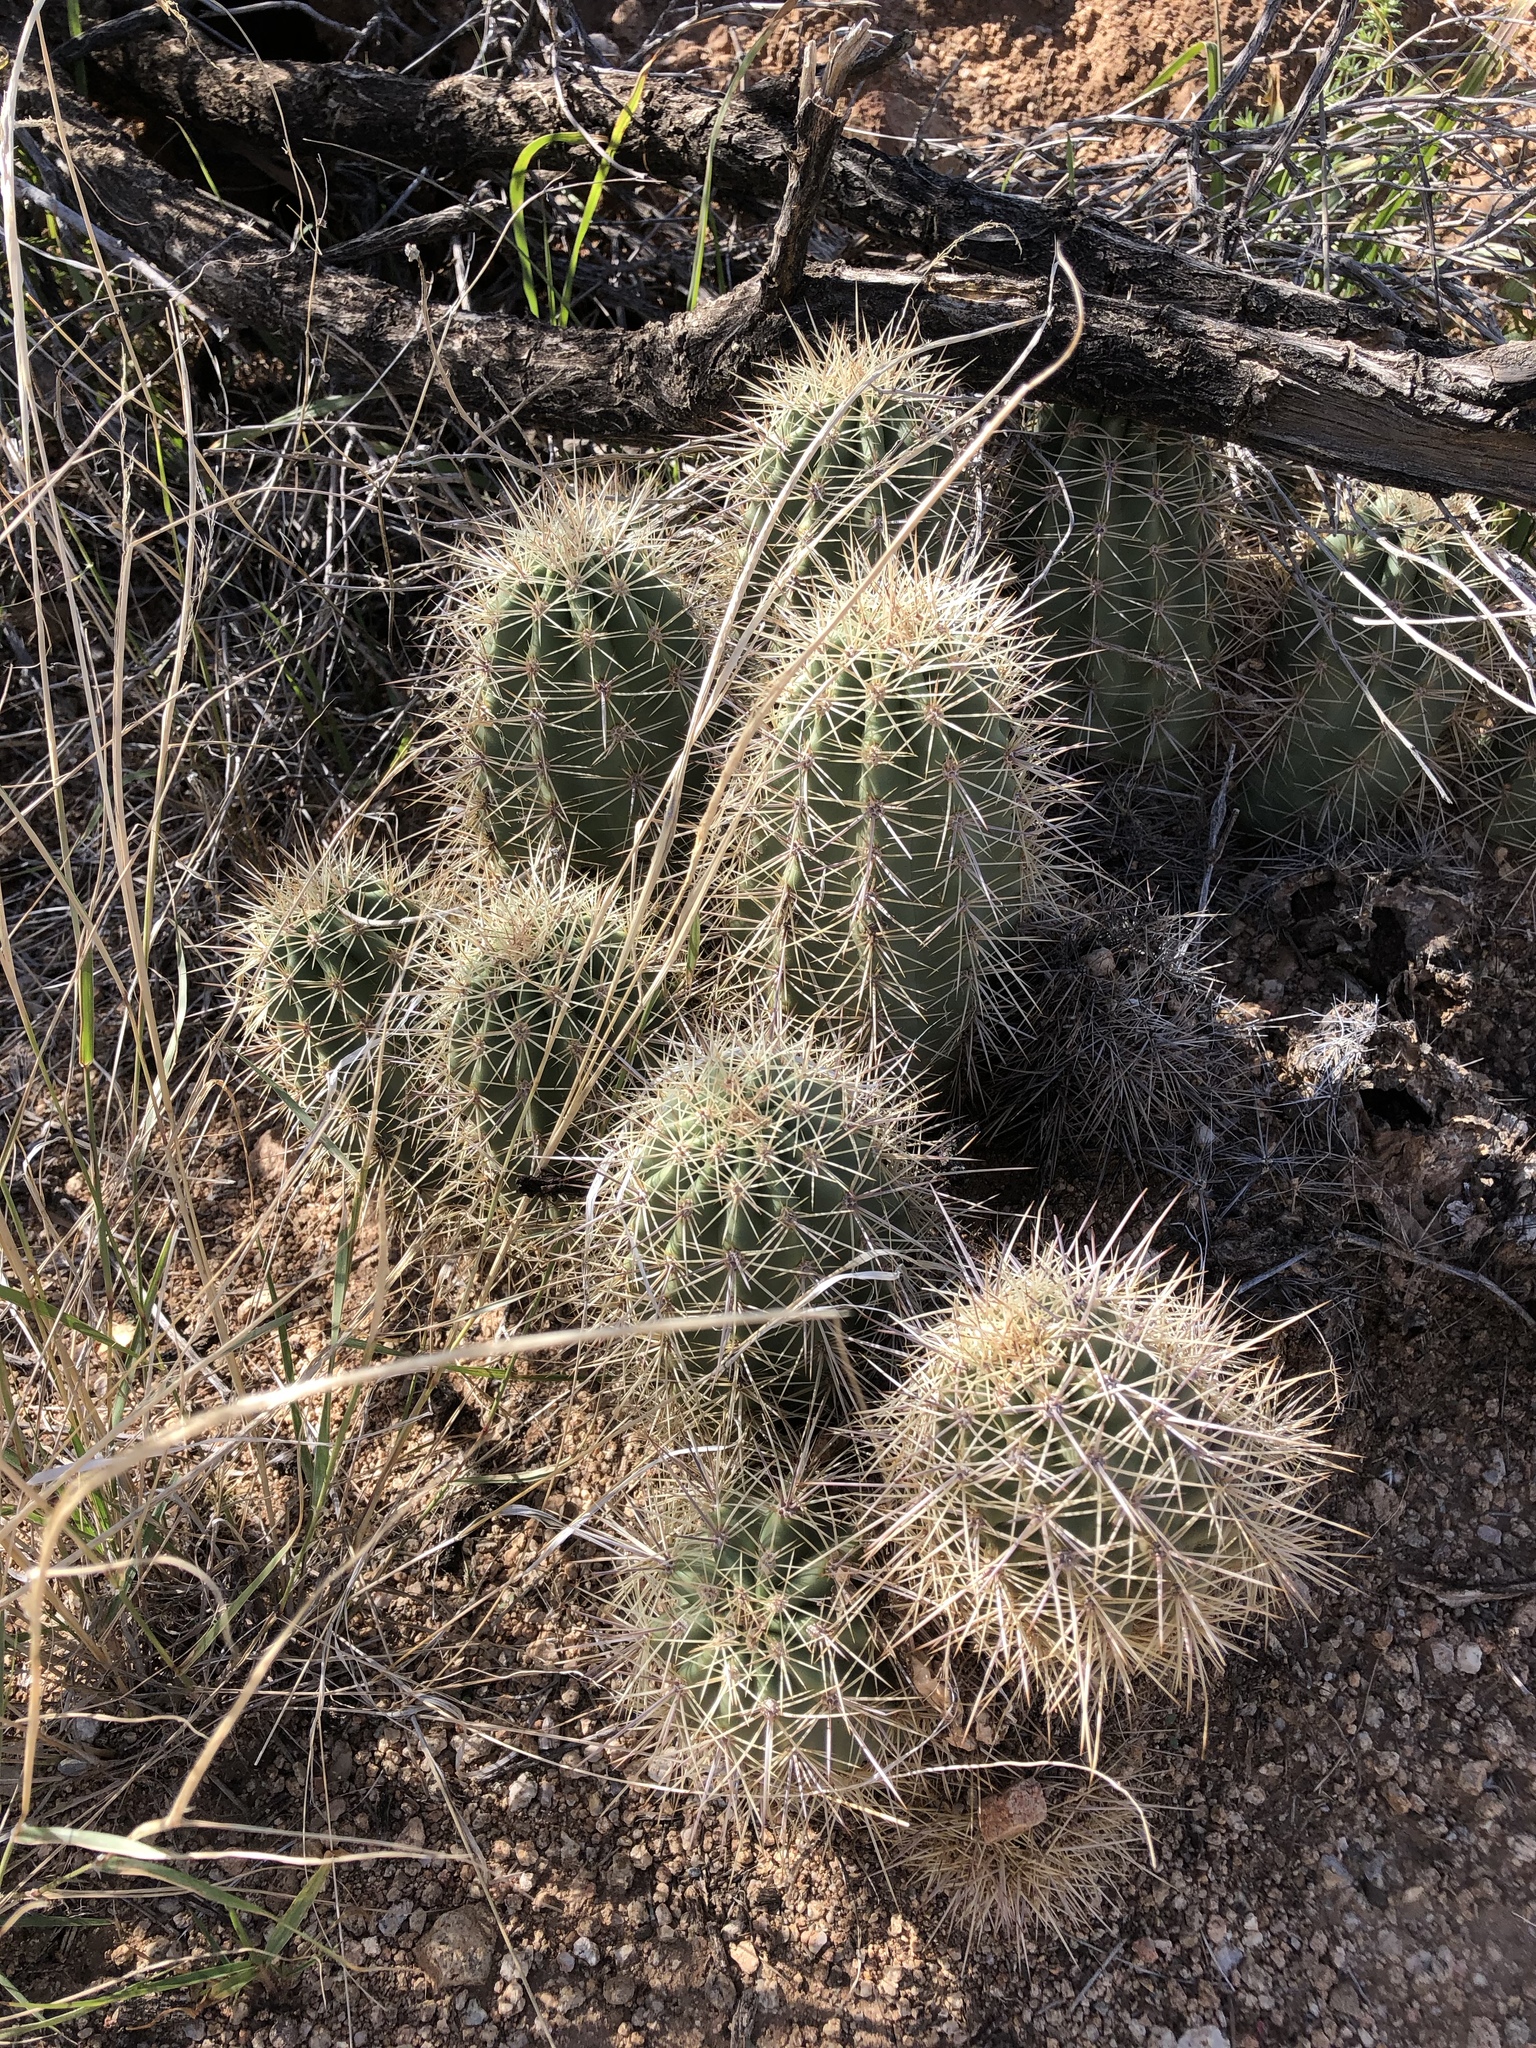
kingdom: Plantae
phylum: Tracheophyta
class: Magnoliopsida
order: Caryophyllales
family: Cactaceae
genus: Echinocereus
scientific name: Echinocereus coccineus
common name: Scarlet hedgehog cactus
